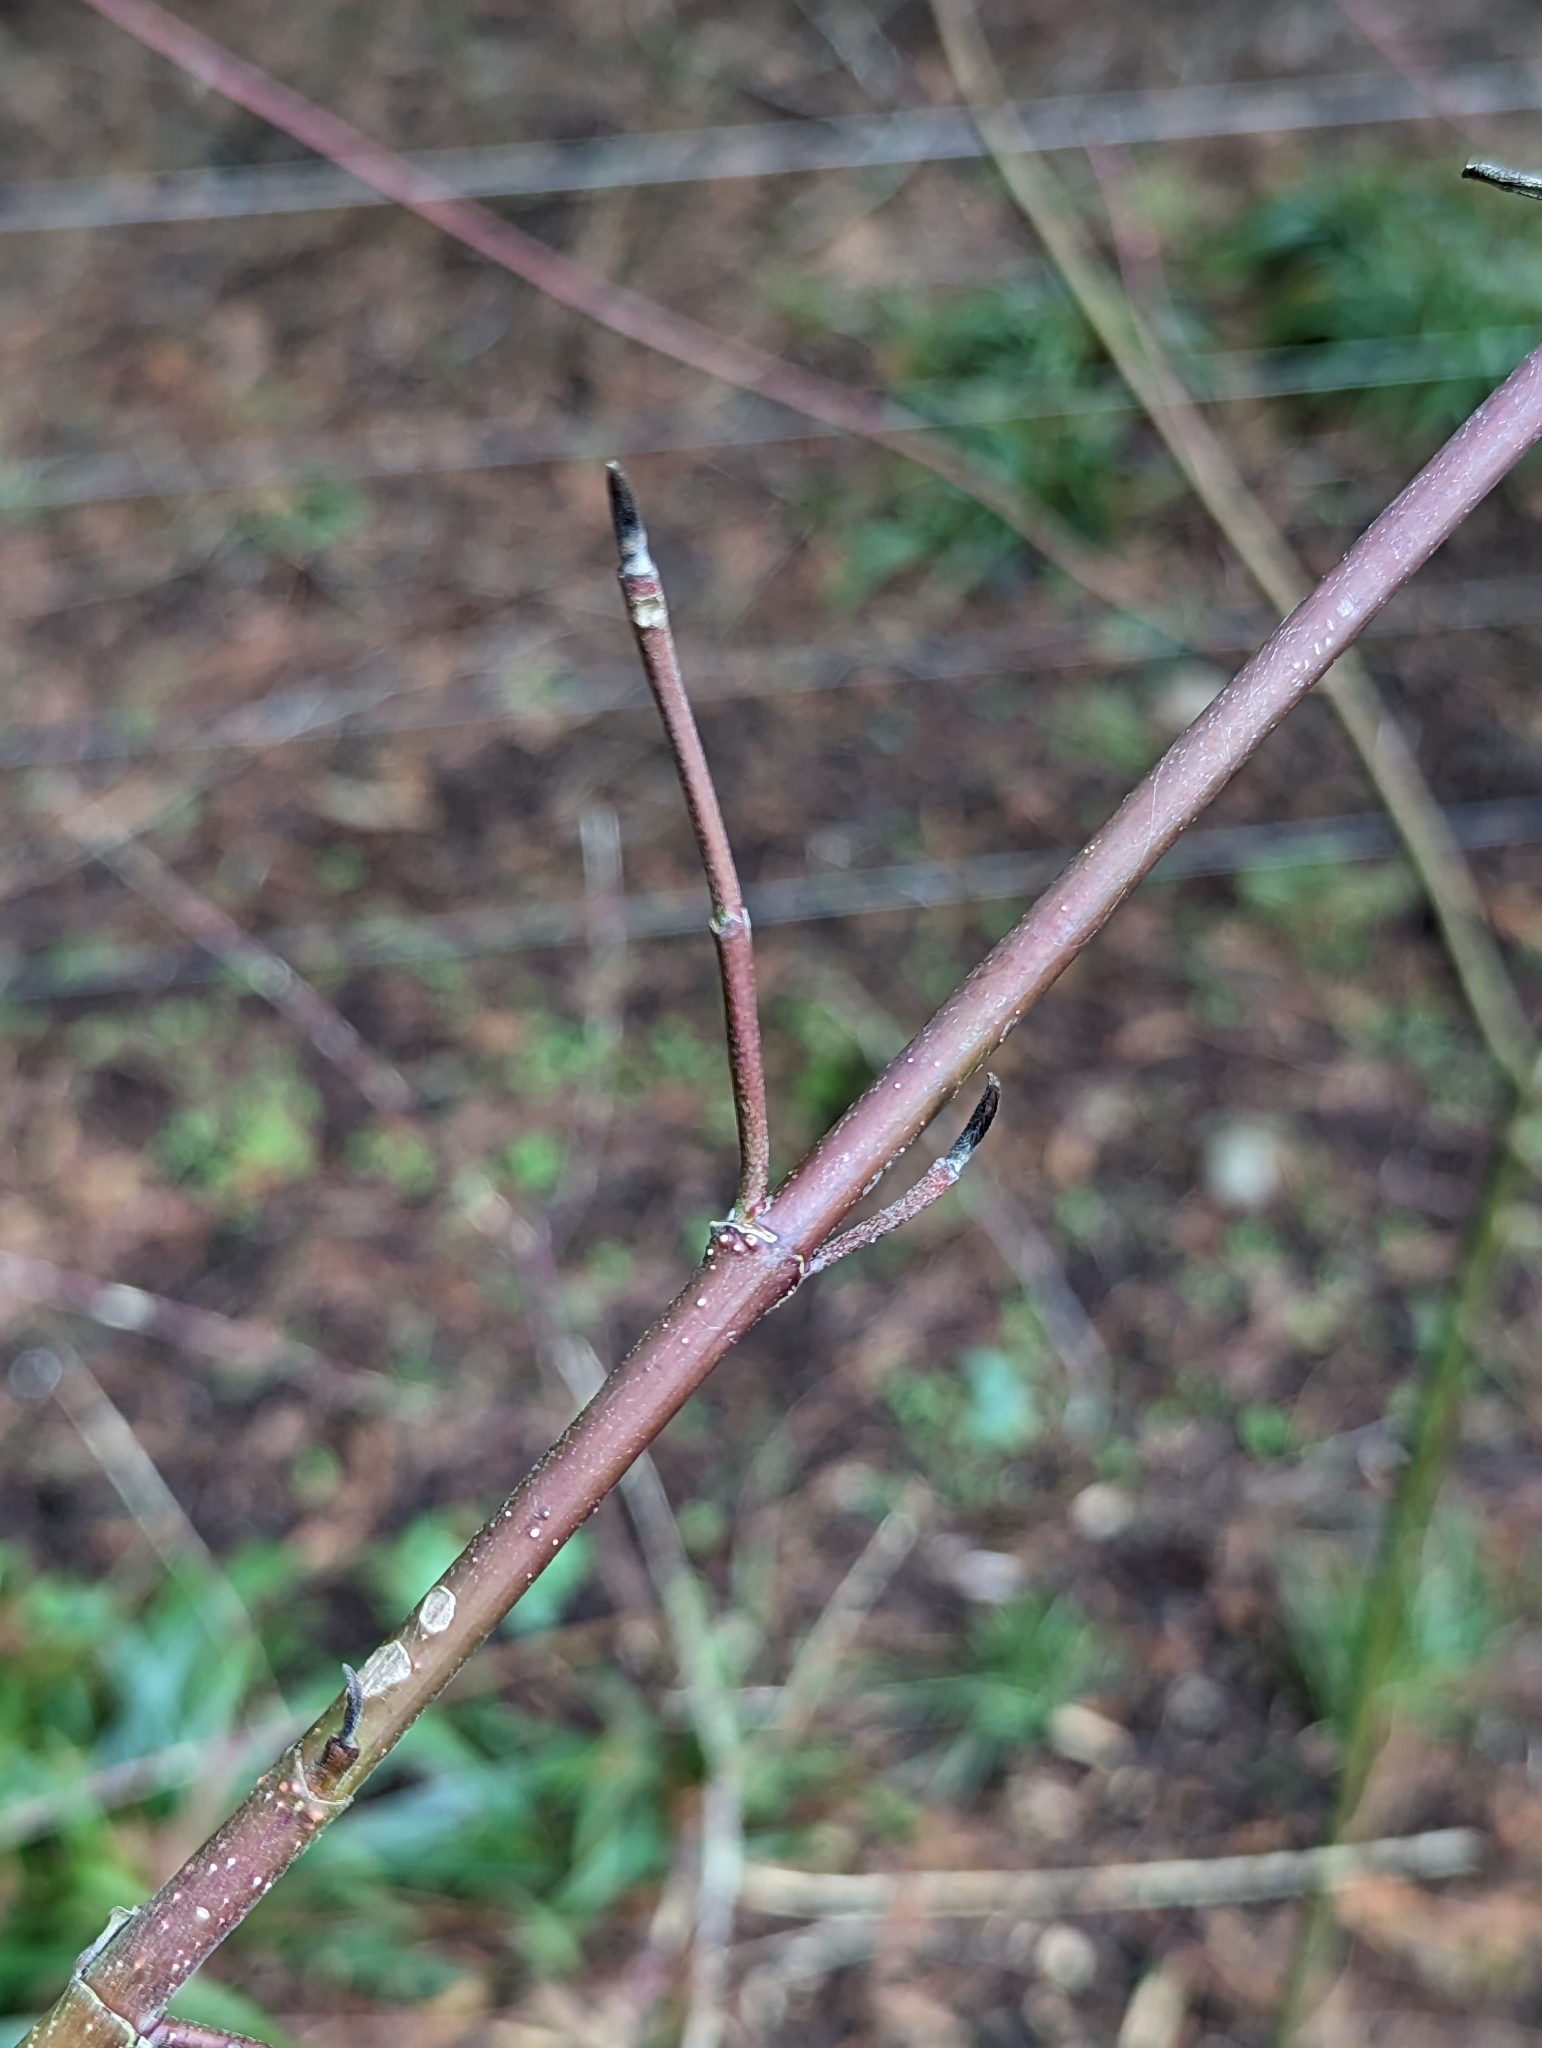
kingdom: Plantae
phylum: Tracheophyta
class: Magnoliopsida
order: Cornales
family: Cornaceae
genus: Cornus
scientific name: Cornus sericea
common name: Red-osier dogwood
